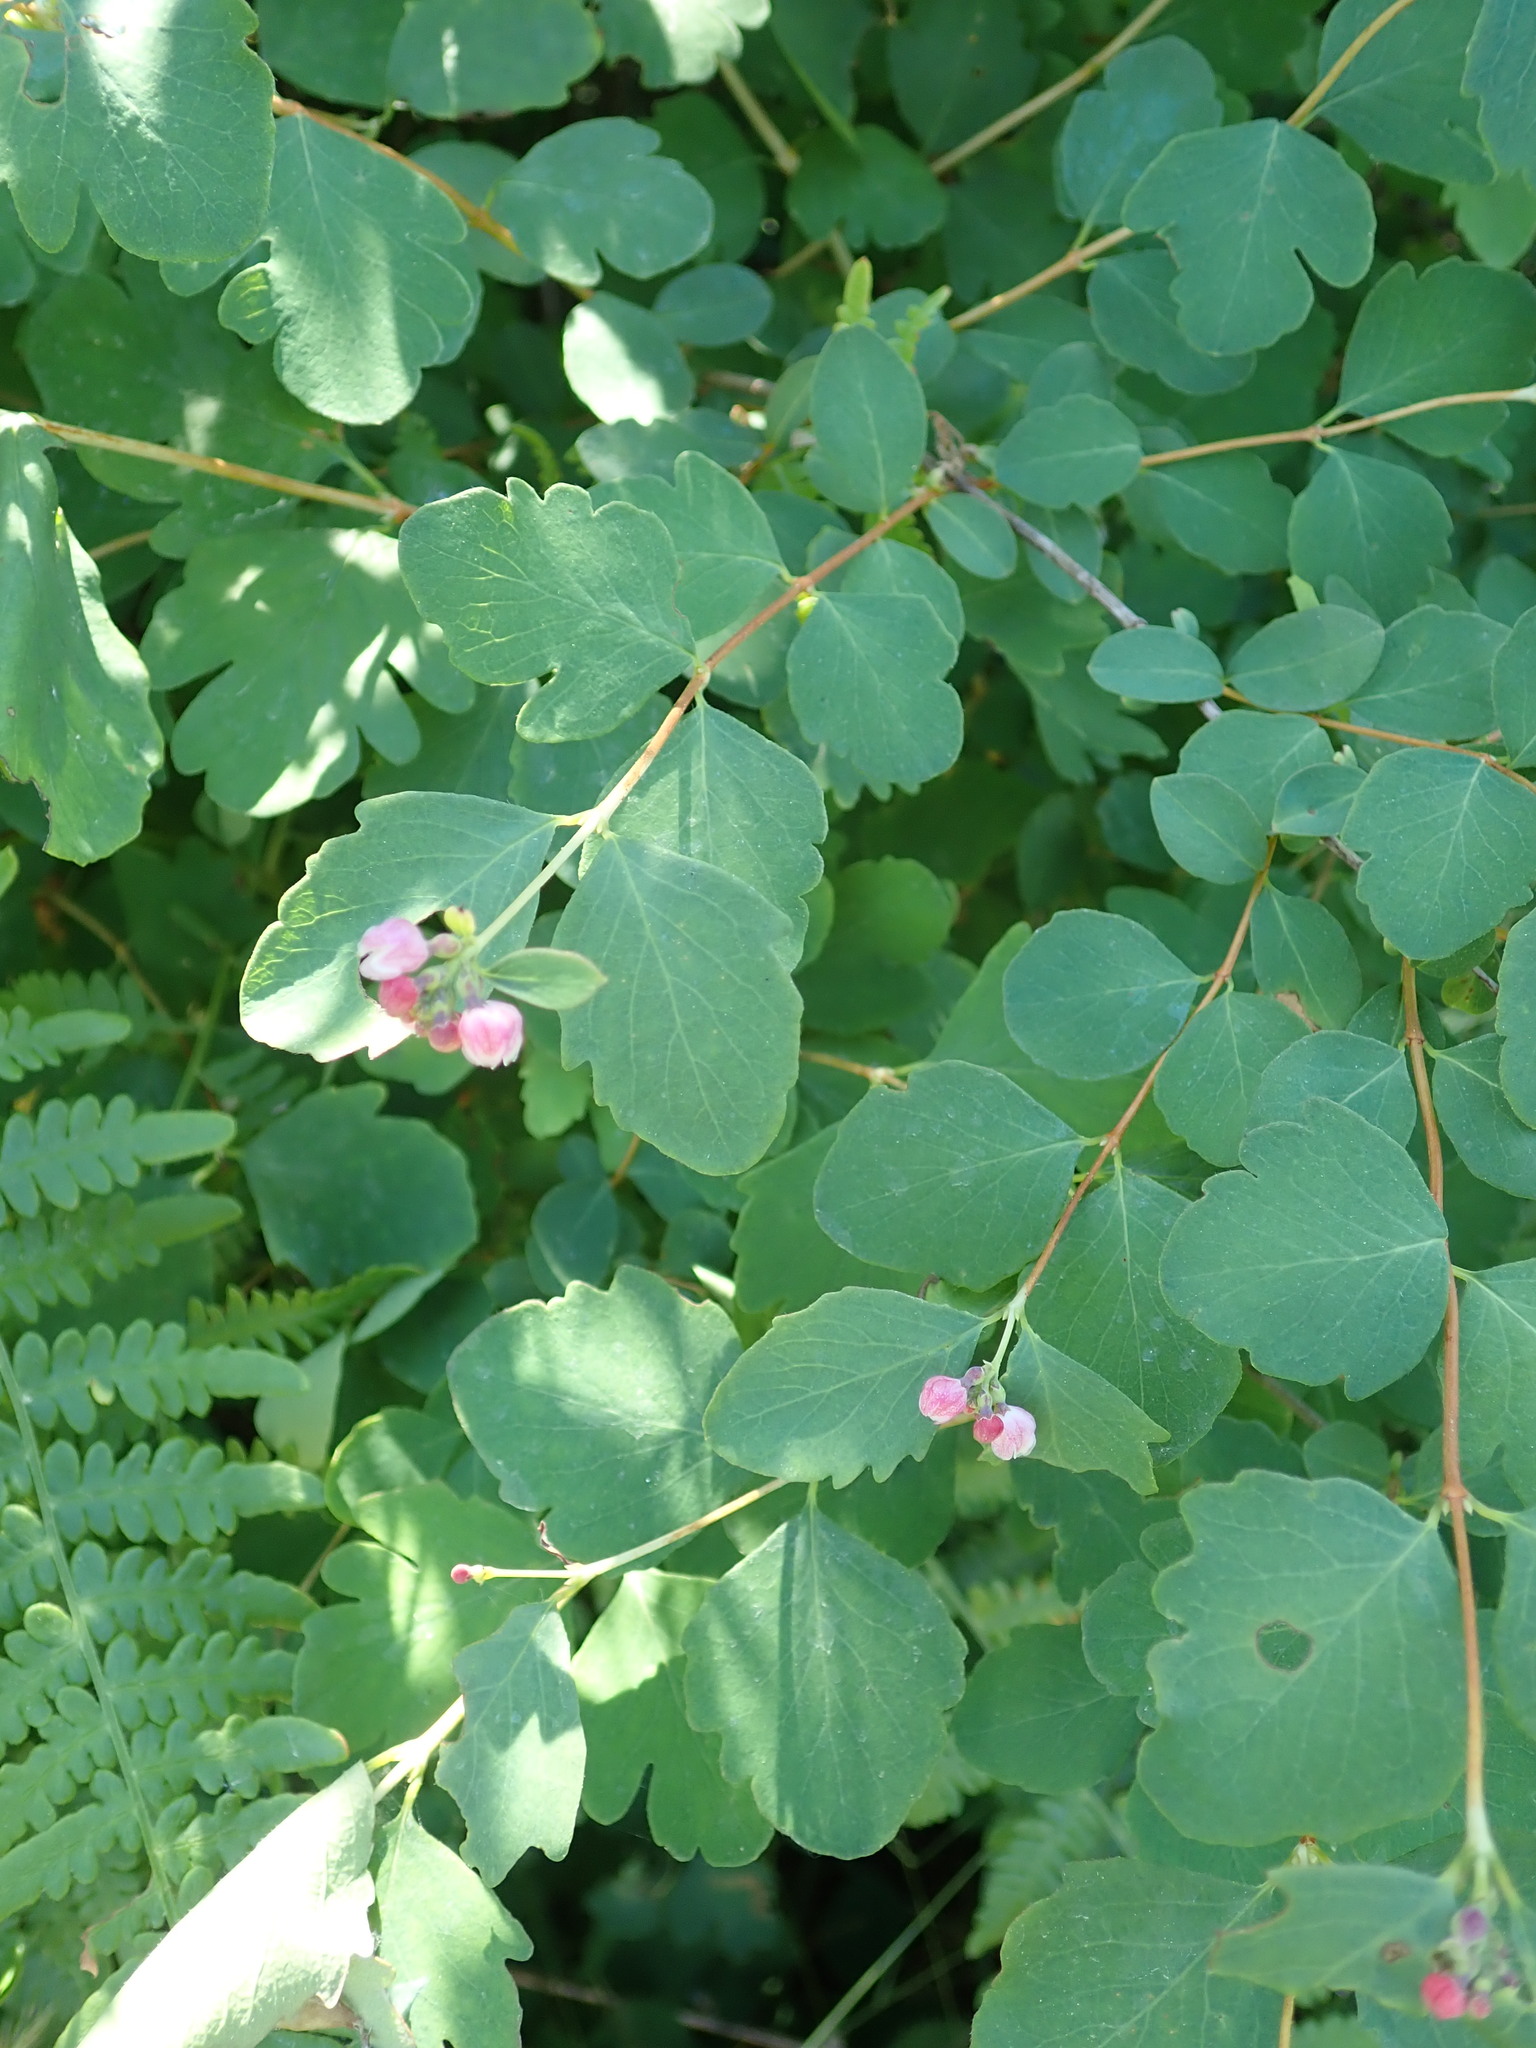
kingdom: Plantae
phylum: Tracheophyta
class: Magnoliopsida
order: Dipsacales
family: Caprifoliaceae
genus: Symphoricarpos
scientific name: Symphoricarpos albus
